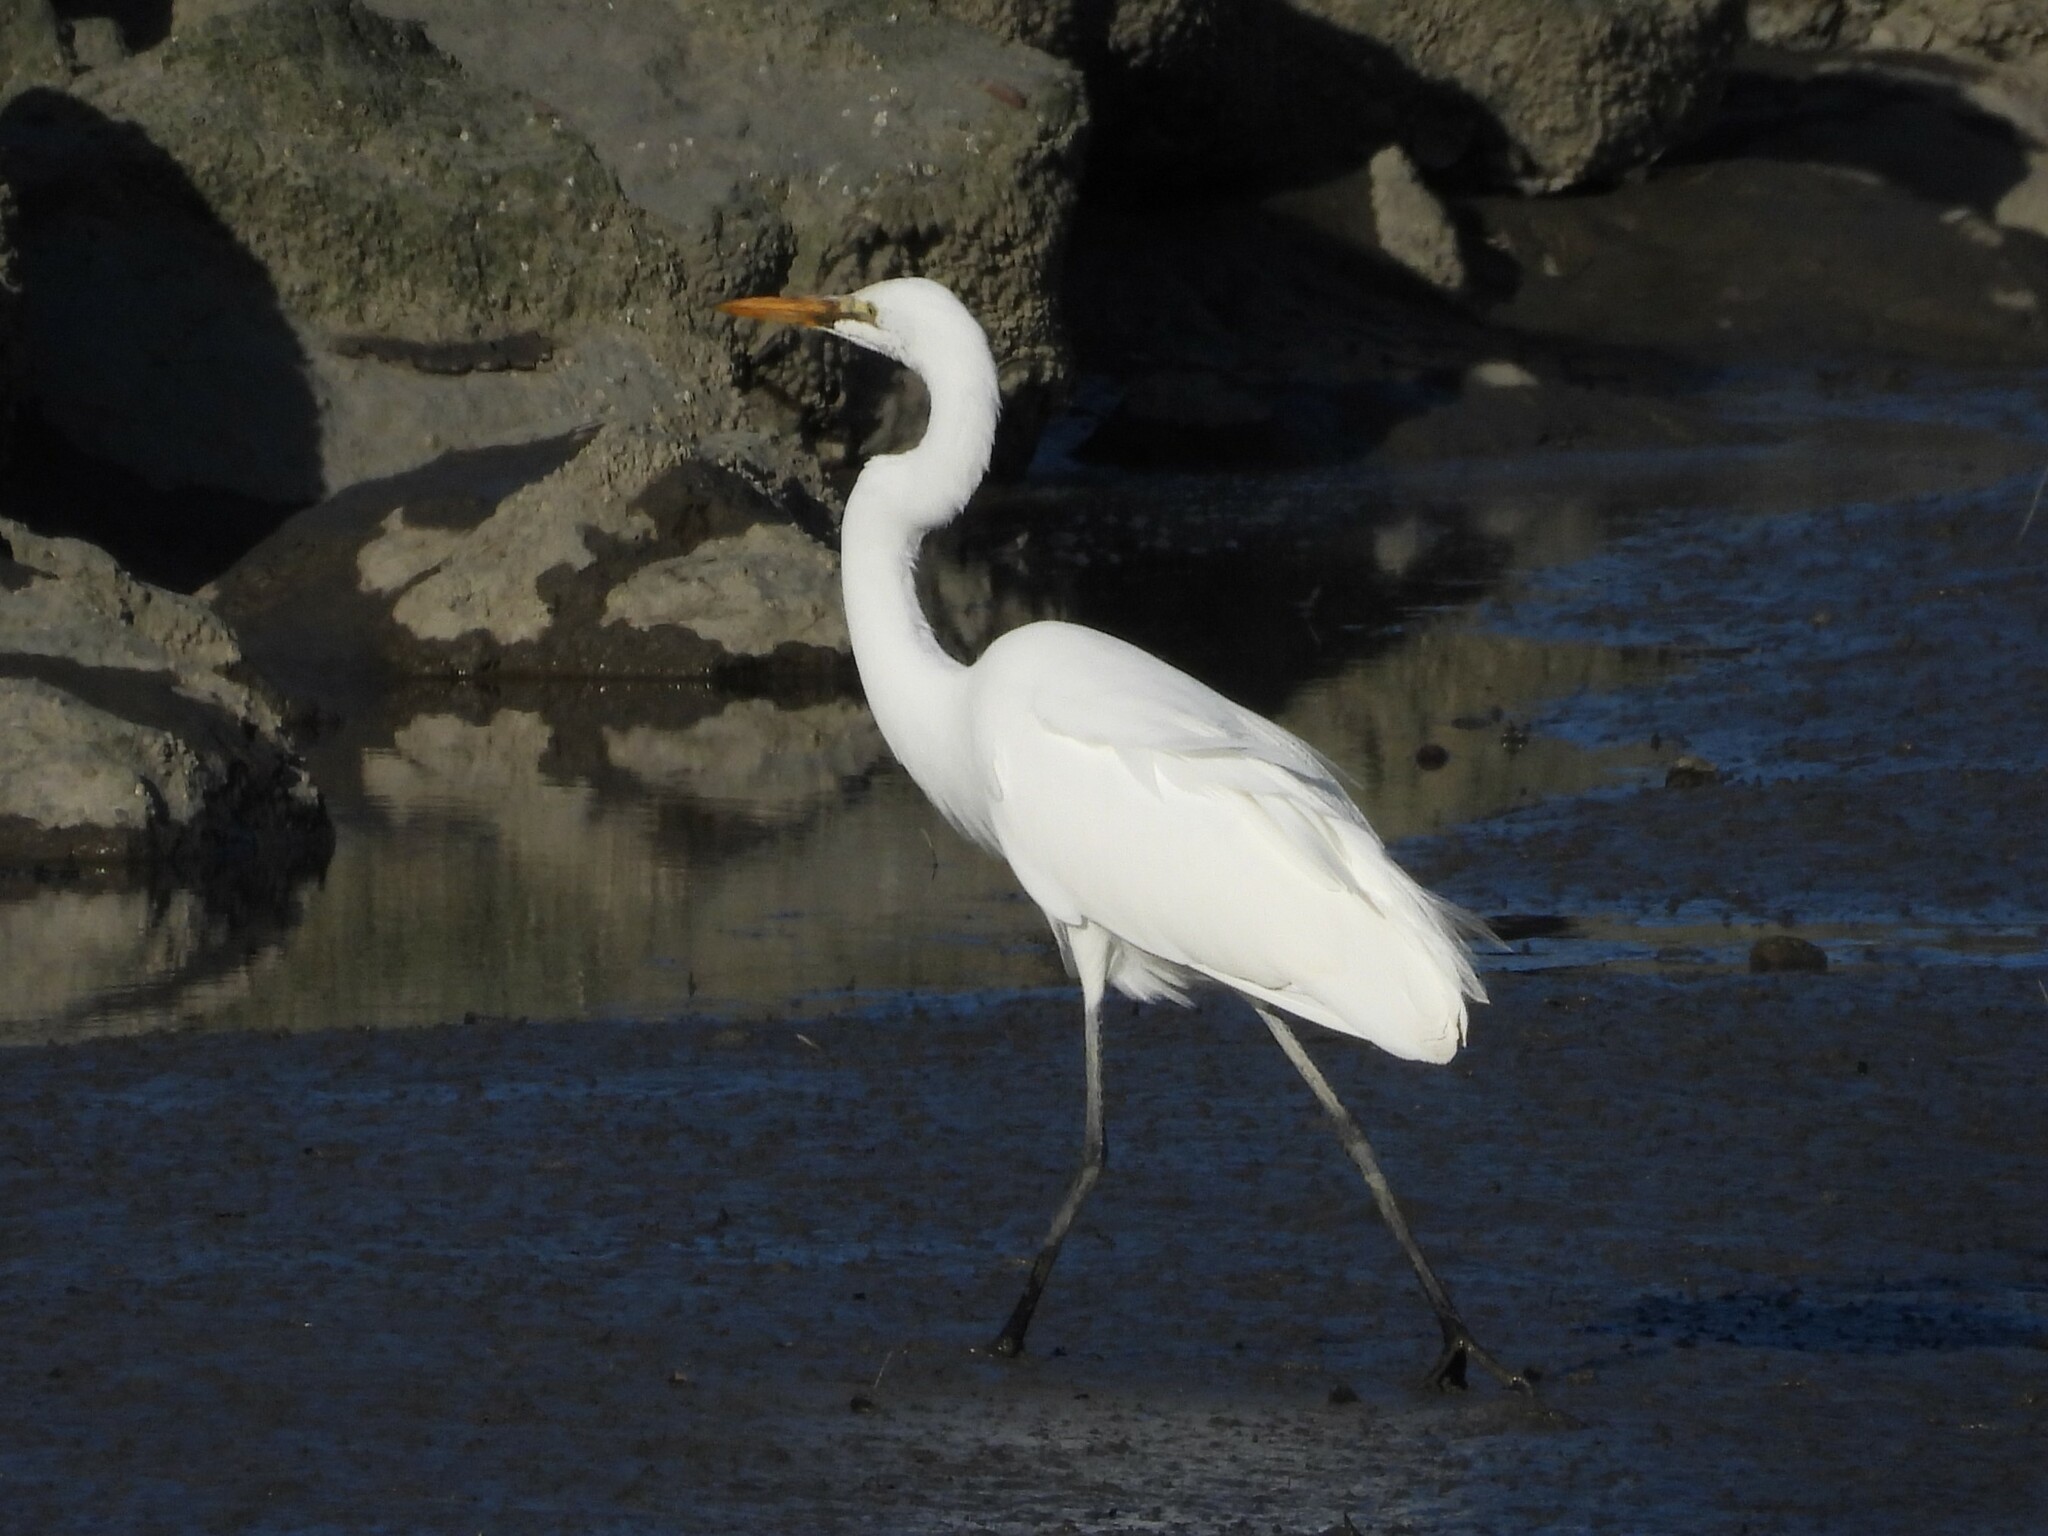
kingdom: Animalia
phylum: Chordata
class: Aves
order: Pelecaniformes
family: Ardeidae
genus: Ardea
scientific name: Ardea alba
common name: Great egret
